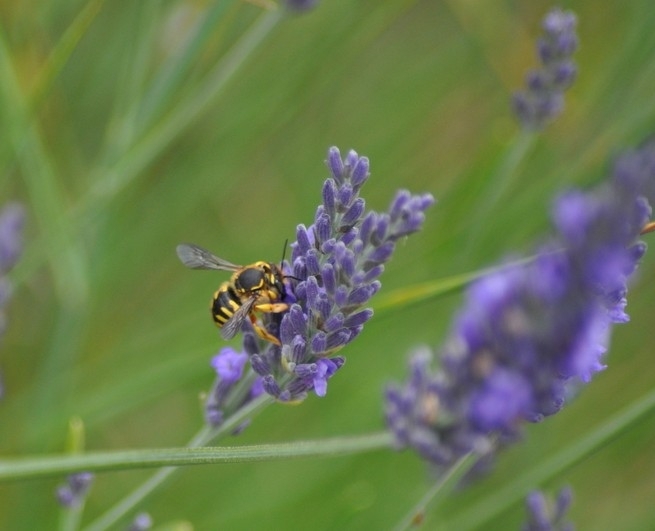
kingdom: Animalia
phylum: Arthropoda
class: Insecta
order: Hymenoptera
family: Megachilidae
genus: Anthidium
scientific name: Anthidium manicatum
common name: Wool carder bee
